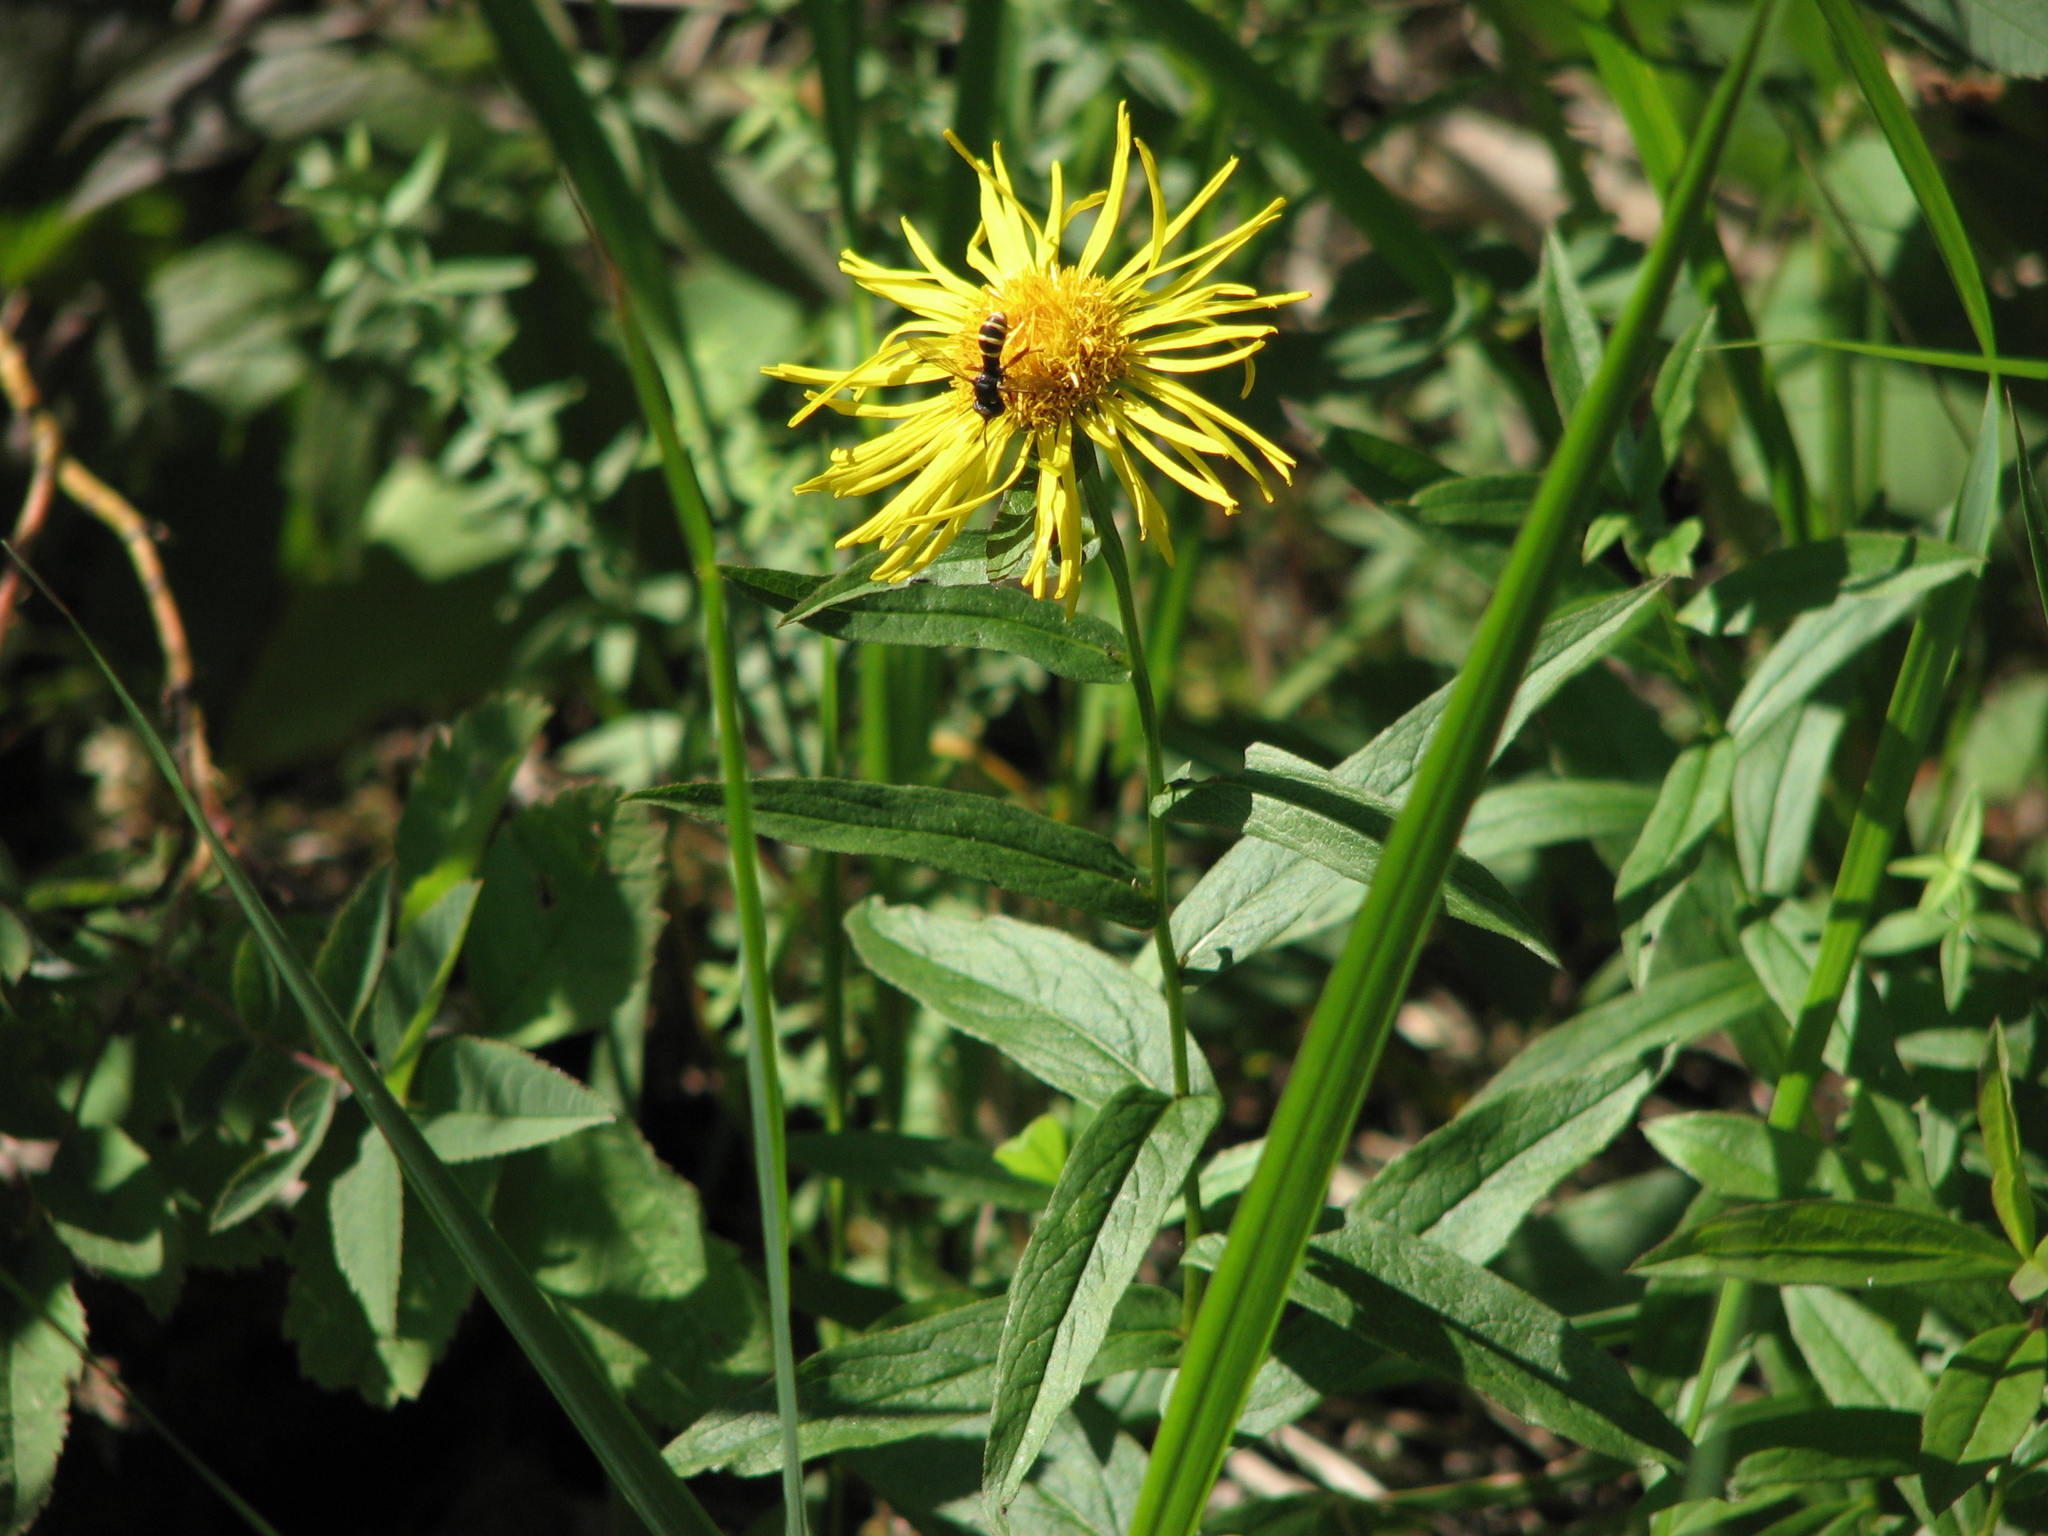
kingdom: Plantae
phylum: Tracheophyta
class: Magnoliopsida
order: Asterales
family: Asteraceae
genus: Pentanema
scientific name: Pentanema salicinum
